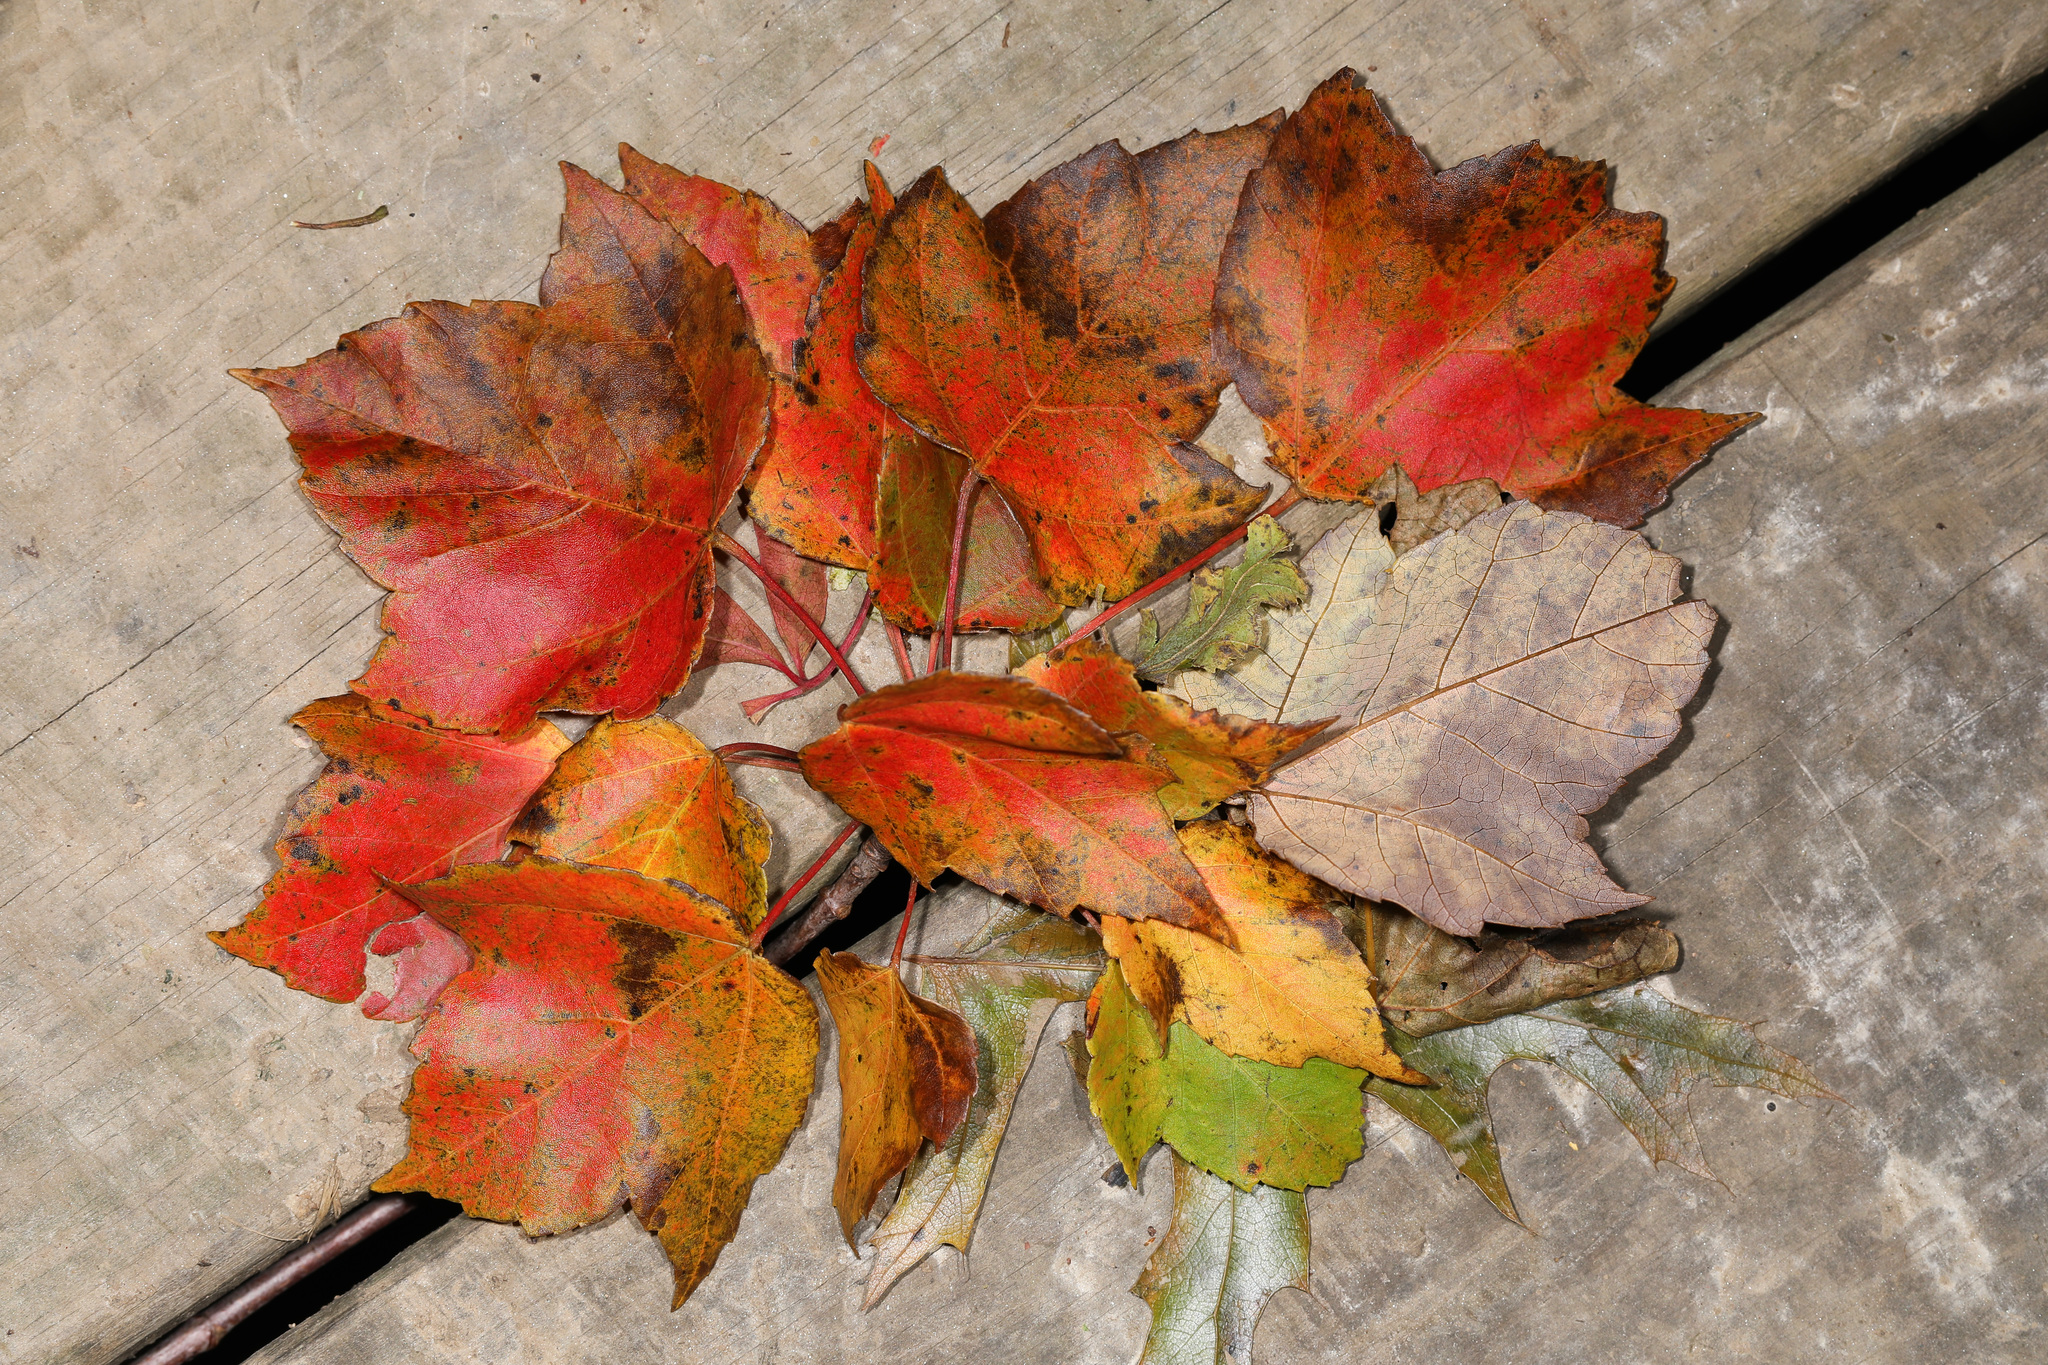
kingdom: Plantae
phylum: Tracheophyta
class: Magnoliopsida
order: Sapindales
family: Sapindaceae
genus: Acer
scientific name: Acer rubrum
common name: Red maple
